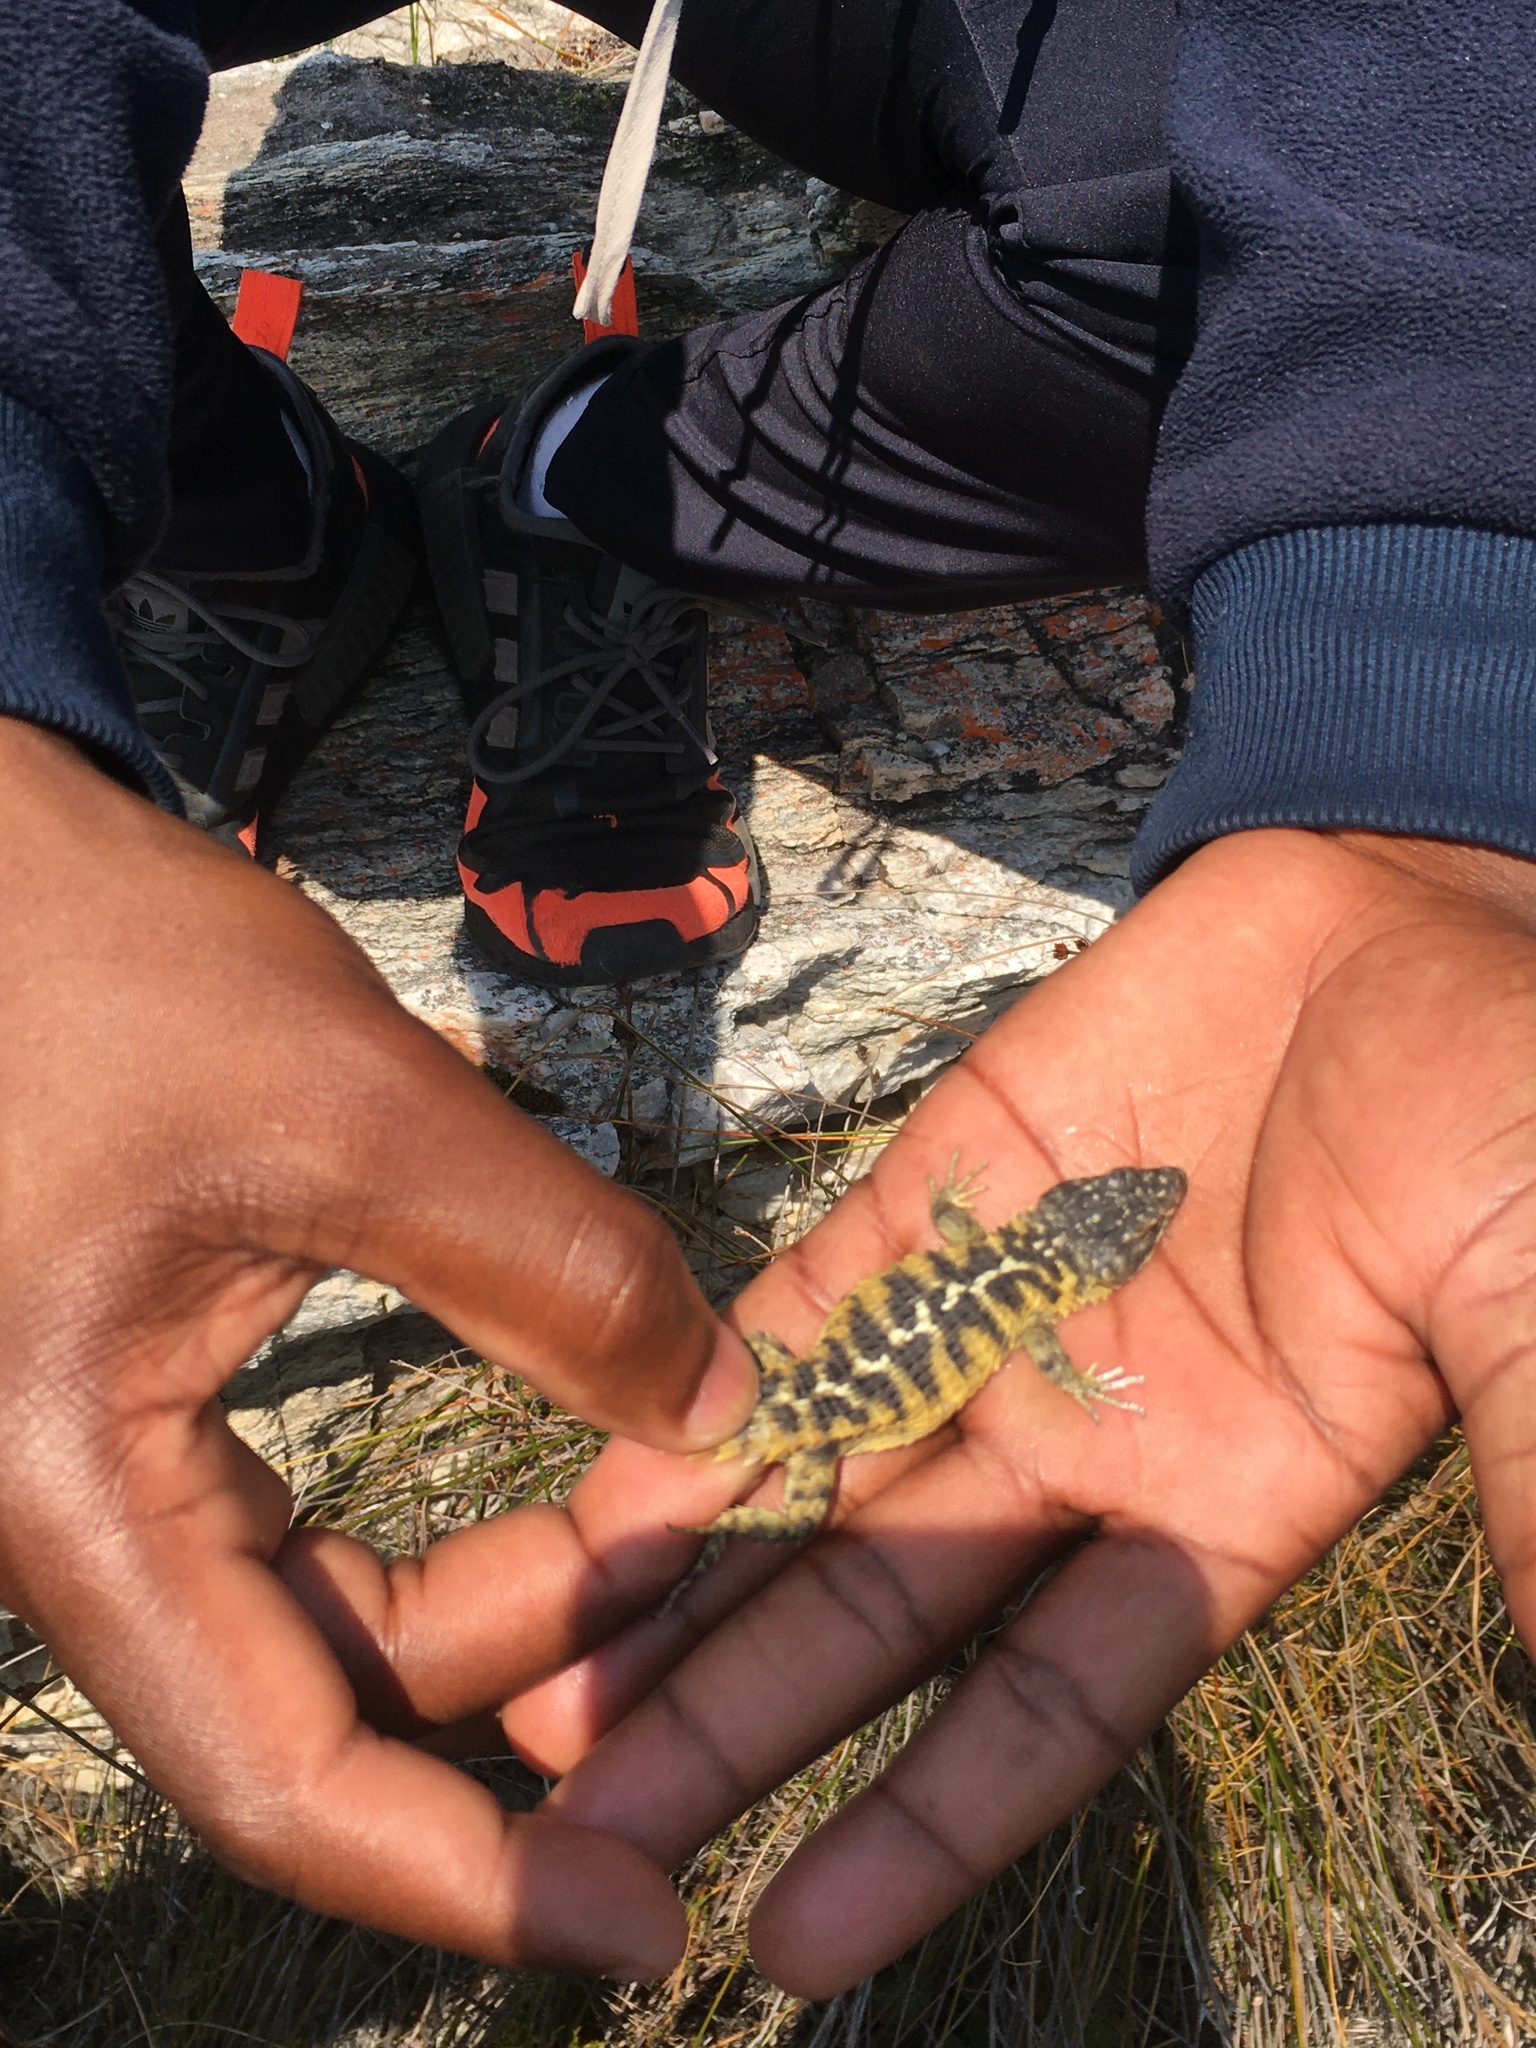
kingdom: Animalia
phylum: Chordata
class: Squamata
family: Cordylidae
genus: Cordylus
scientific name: Cordylus cordylus
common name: Cape girdled lizard
